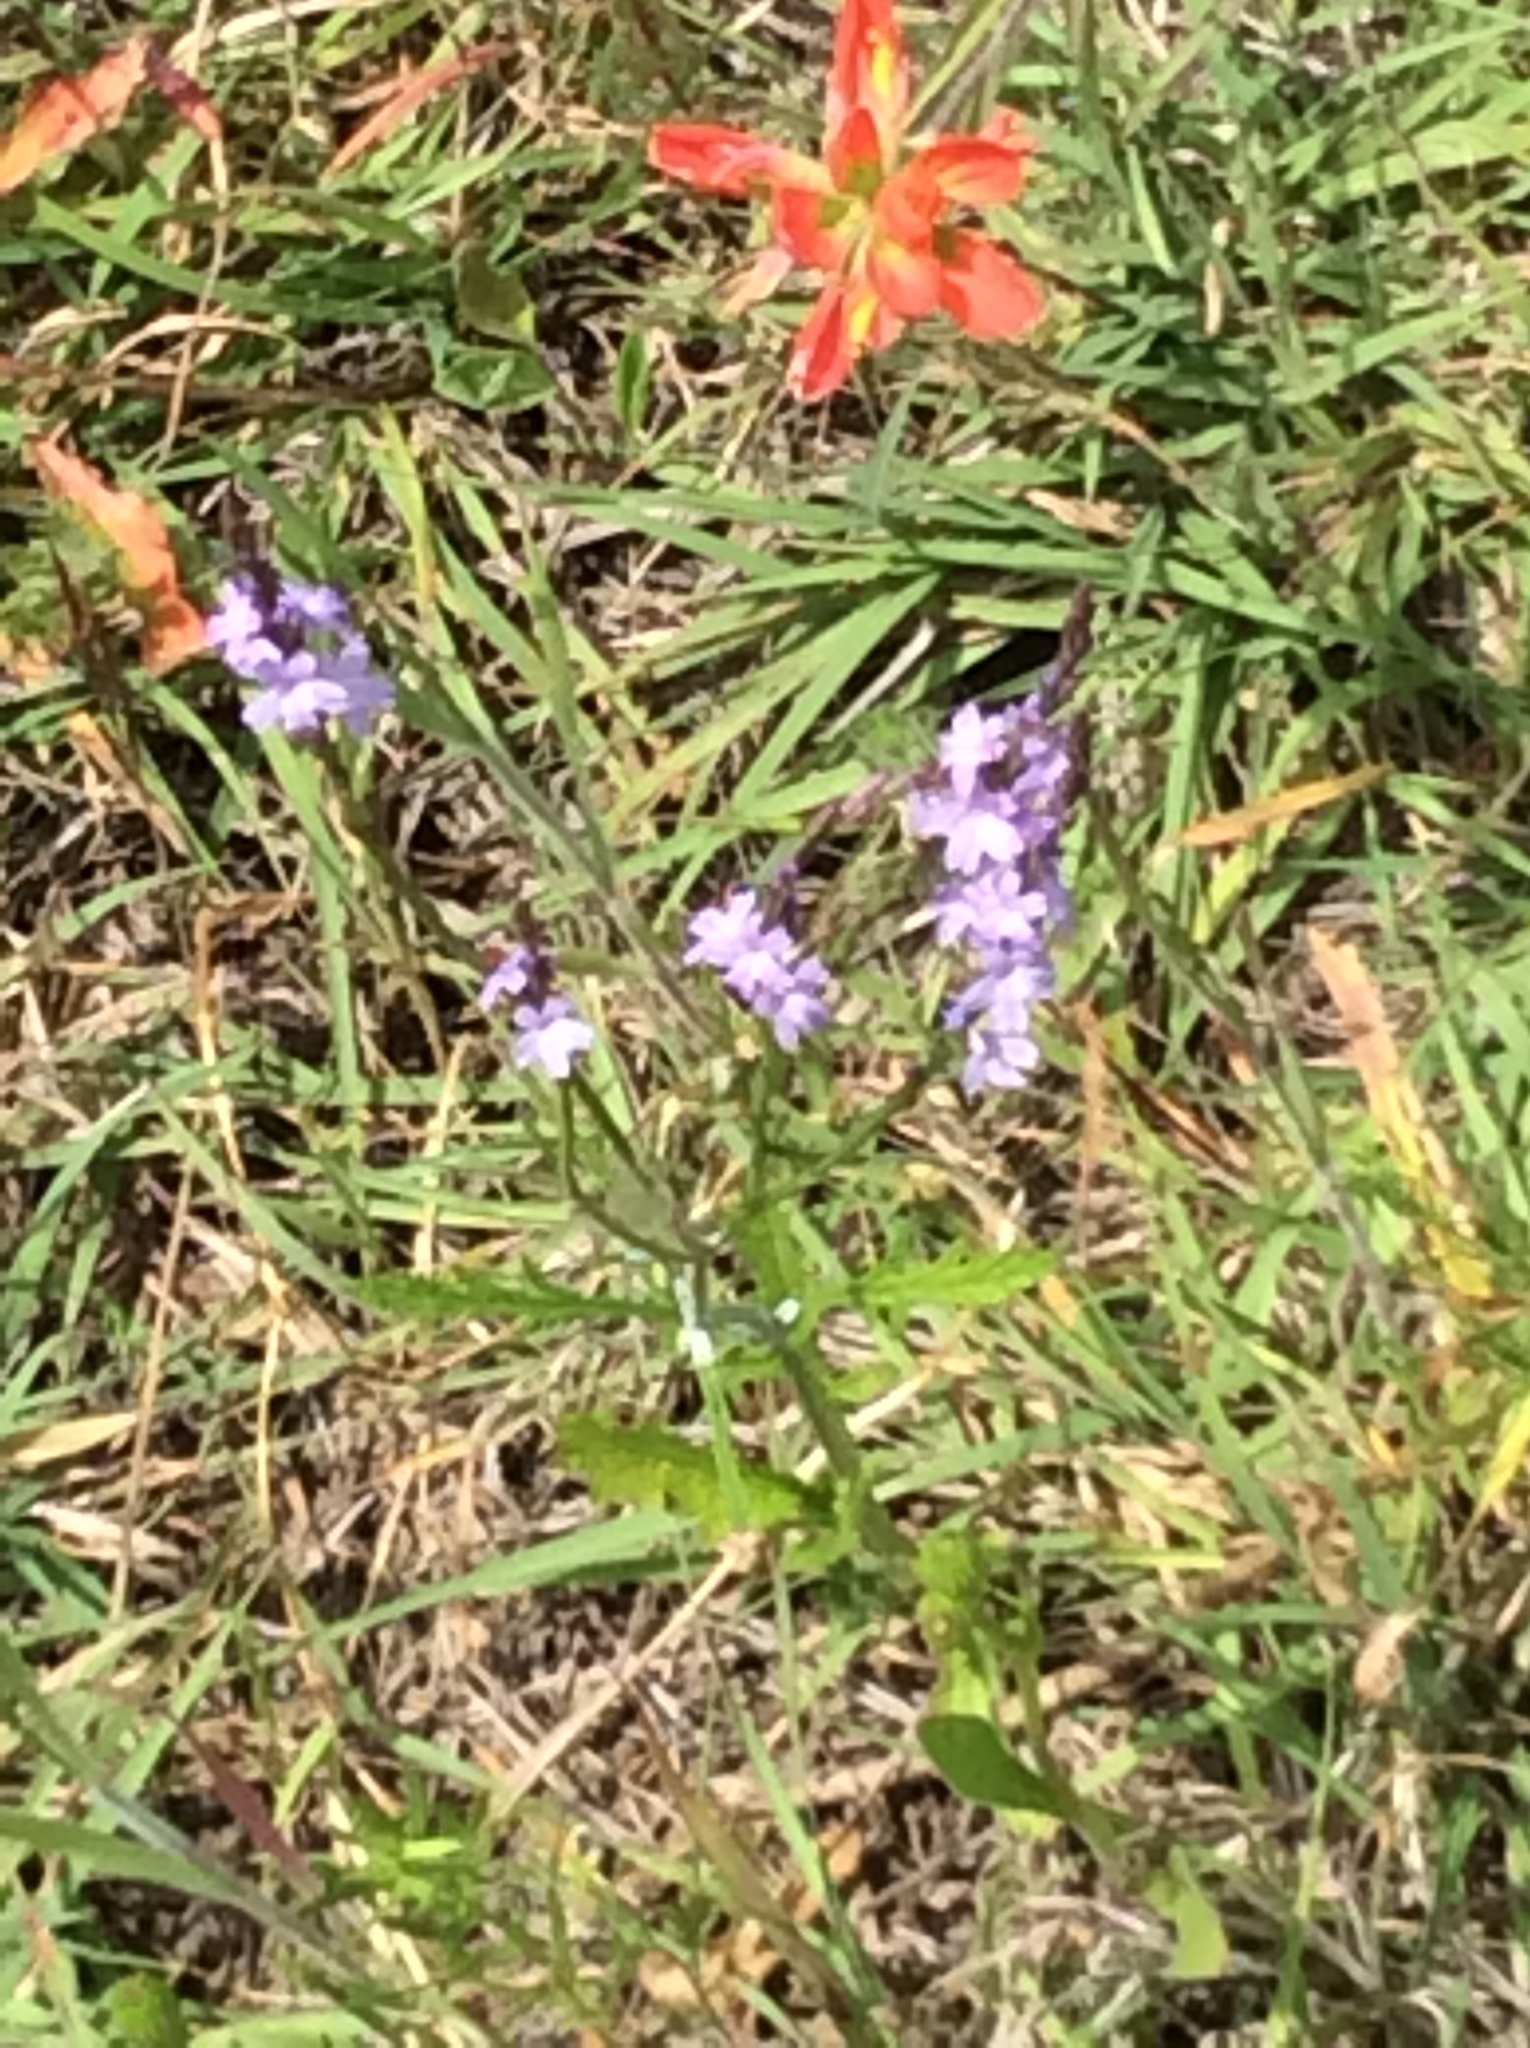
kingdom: Plantae
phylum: Tracheophyta
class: Magnoliopsida
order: Lamiales
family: Verbenaceae
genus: Verbena
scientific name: Verbena halei
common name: Texas vervain
